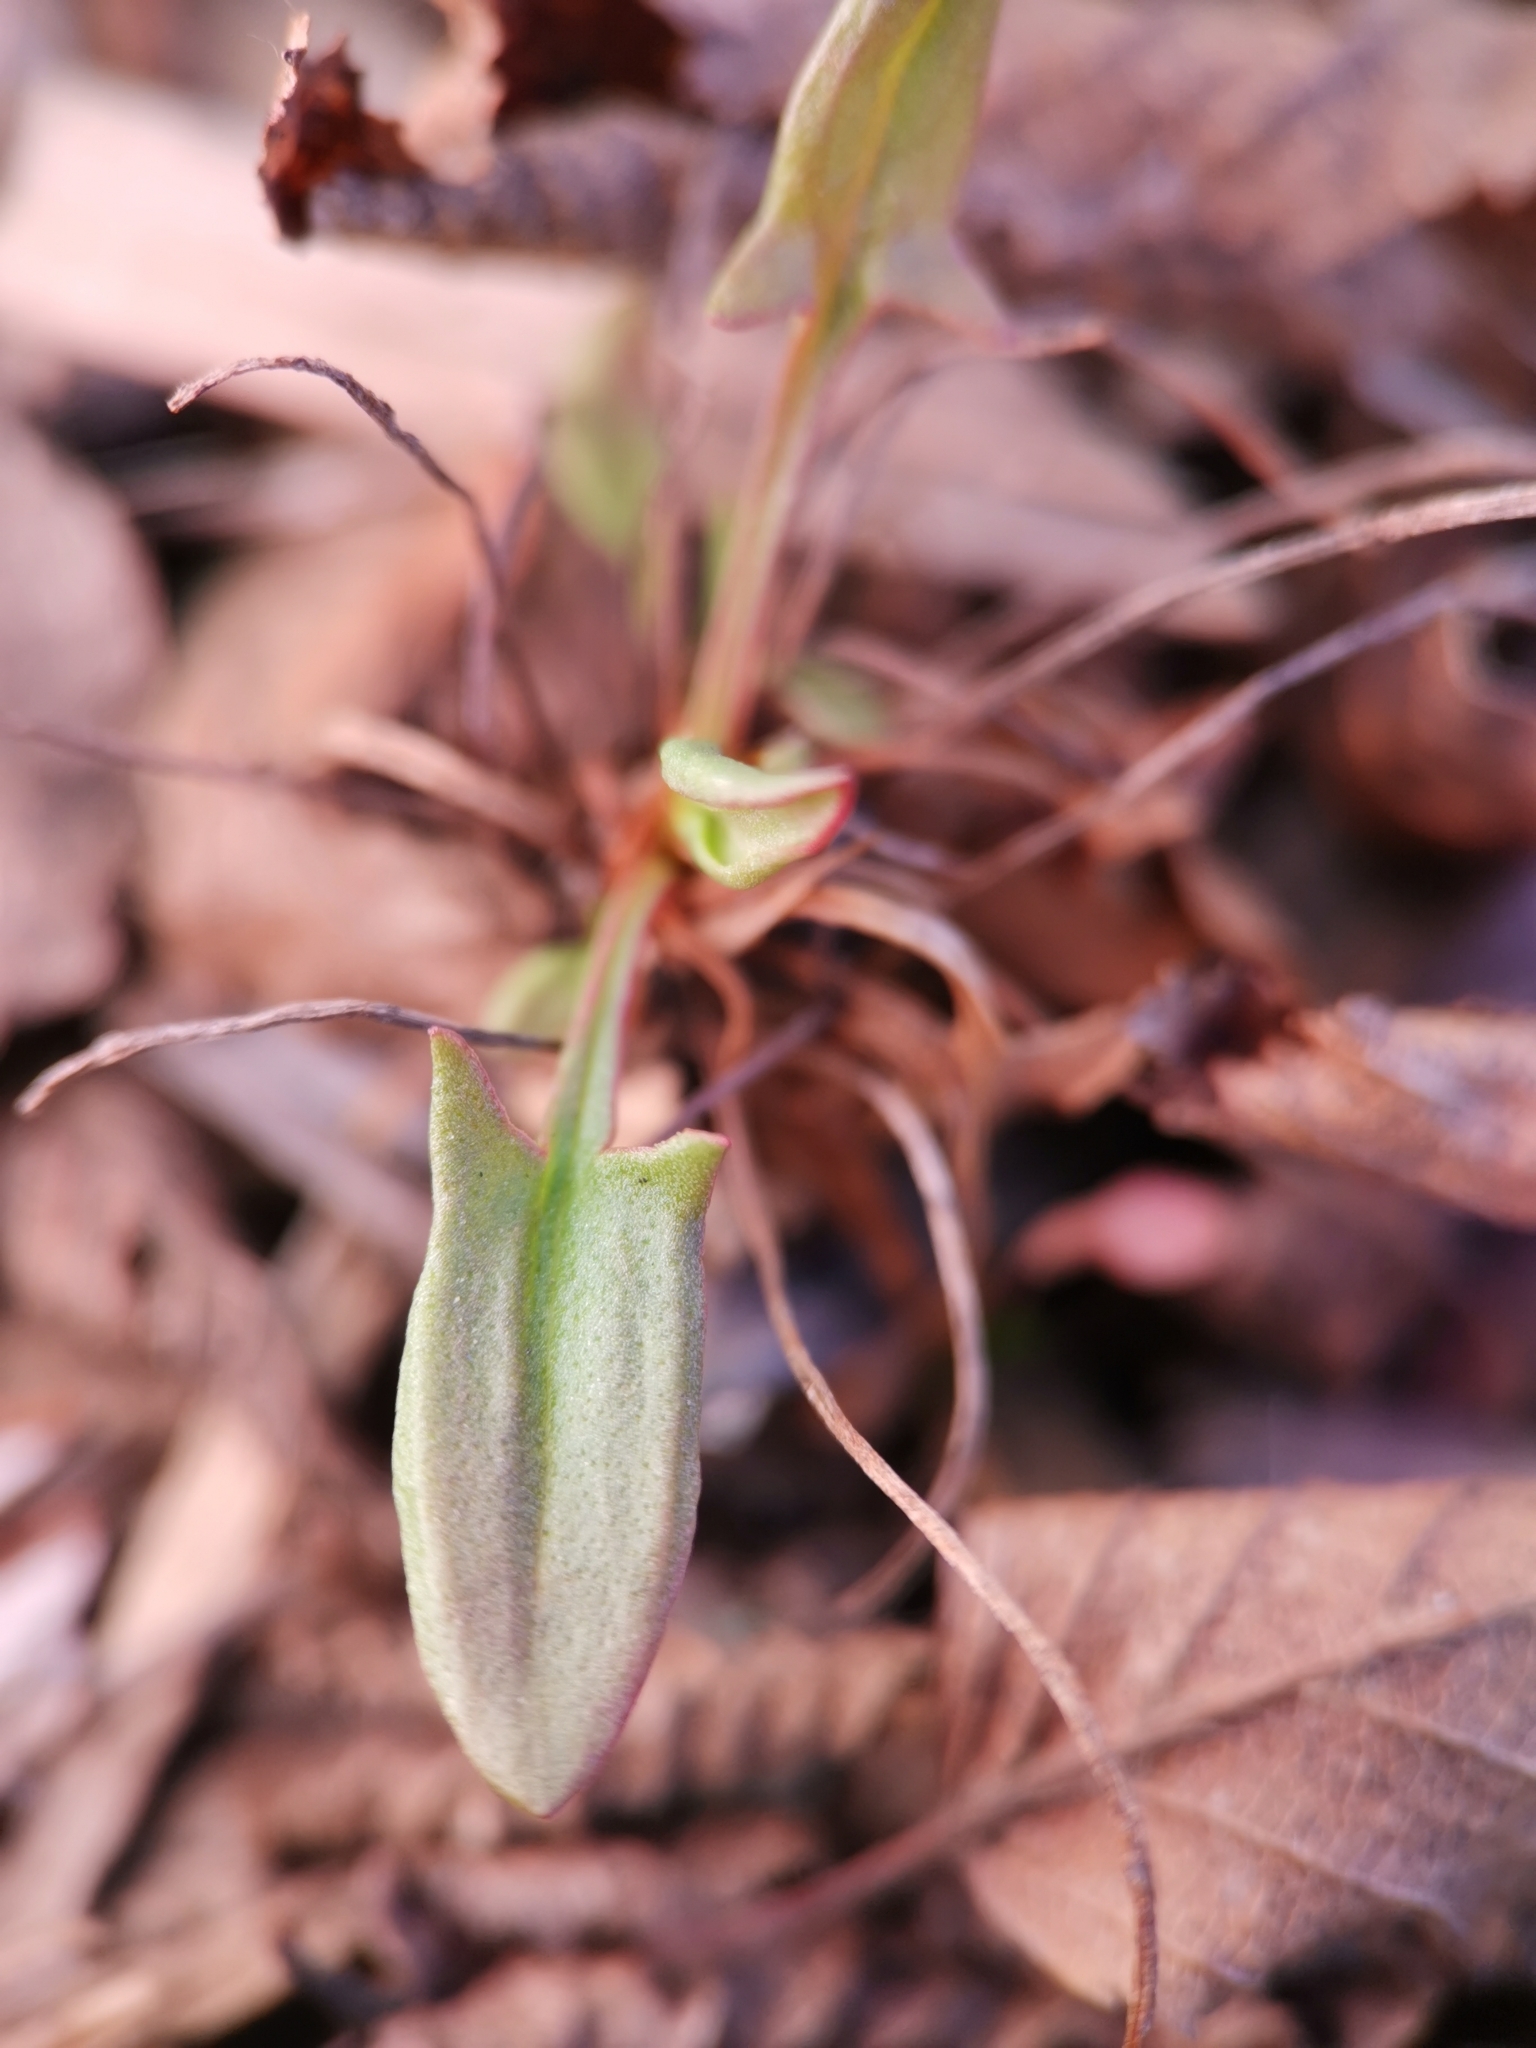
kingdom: Plantae
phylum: Tracheophyta
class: Magnoliopsida
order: Caryophyllales
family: Polygonaceae
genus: Rumex
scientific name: Rumex acetosella
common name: Common sheep sorrel
